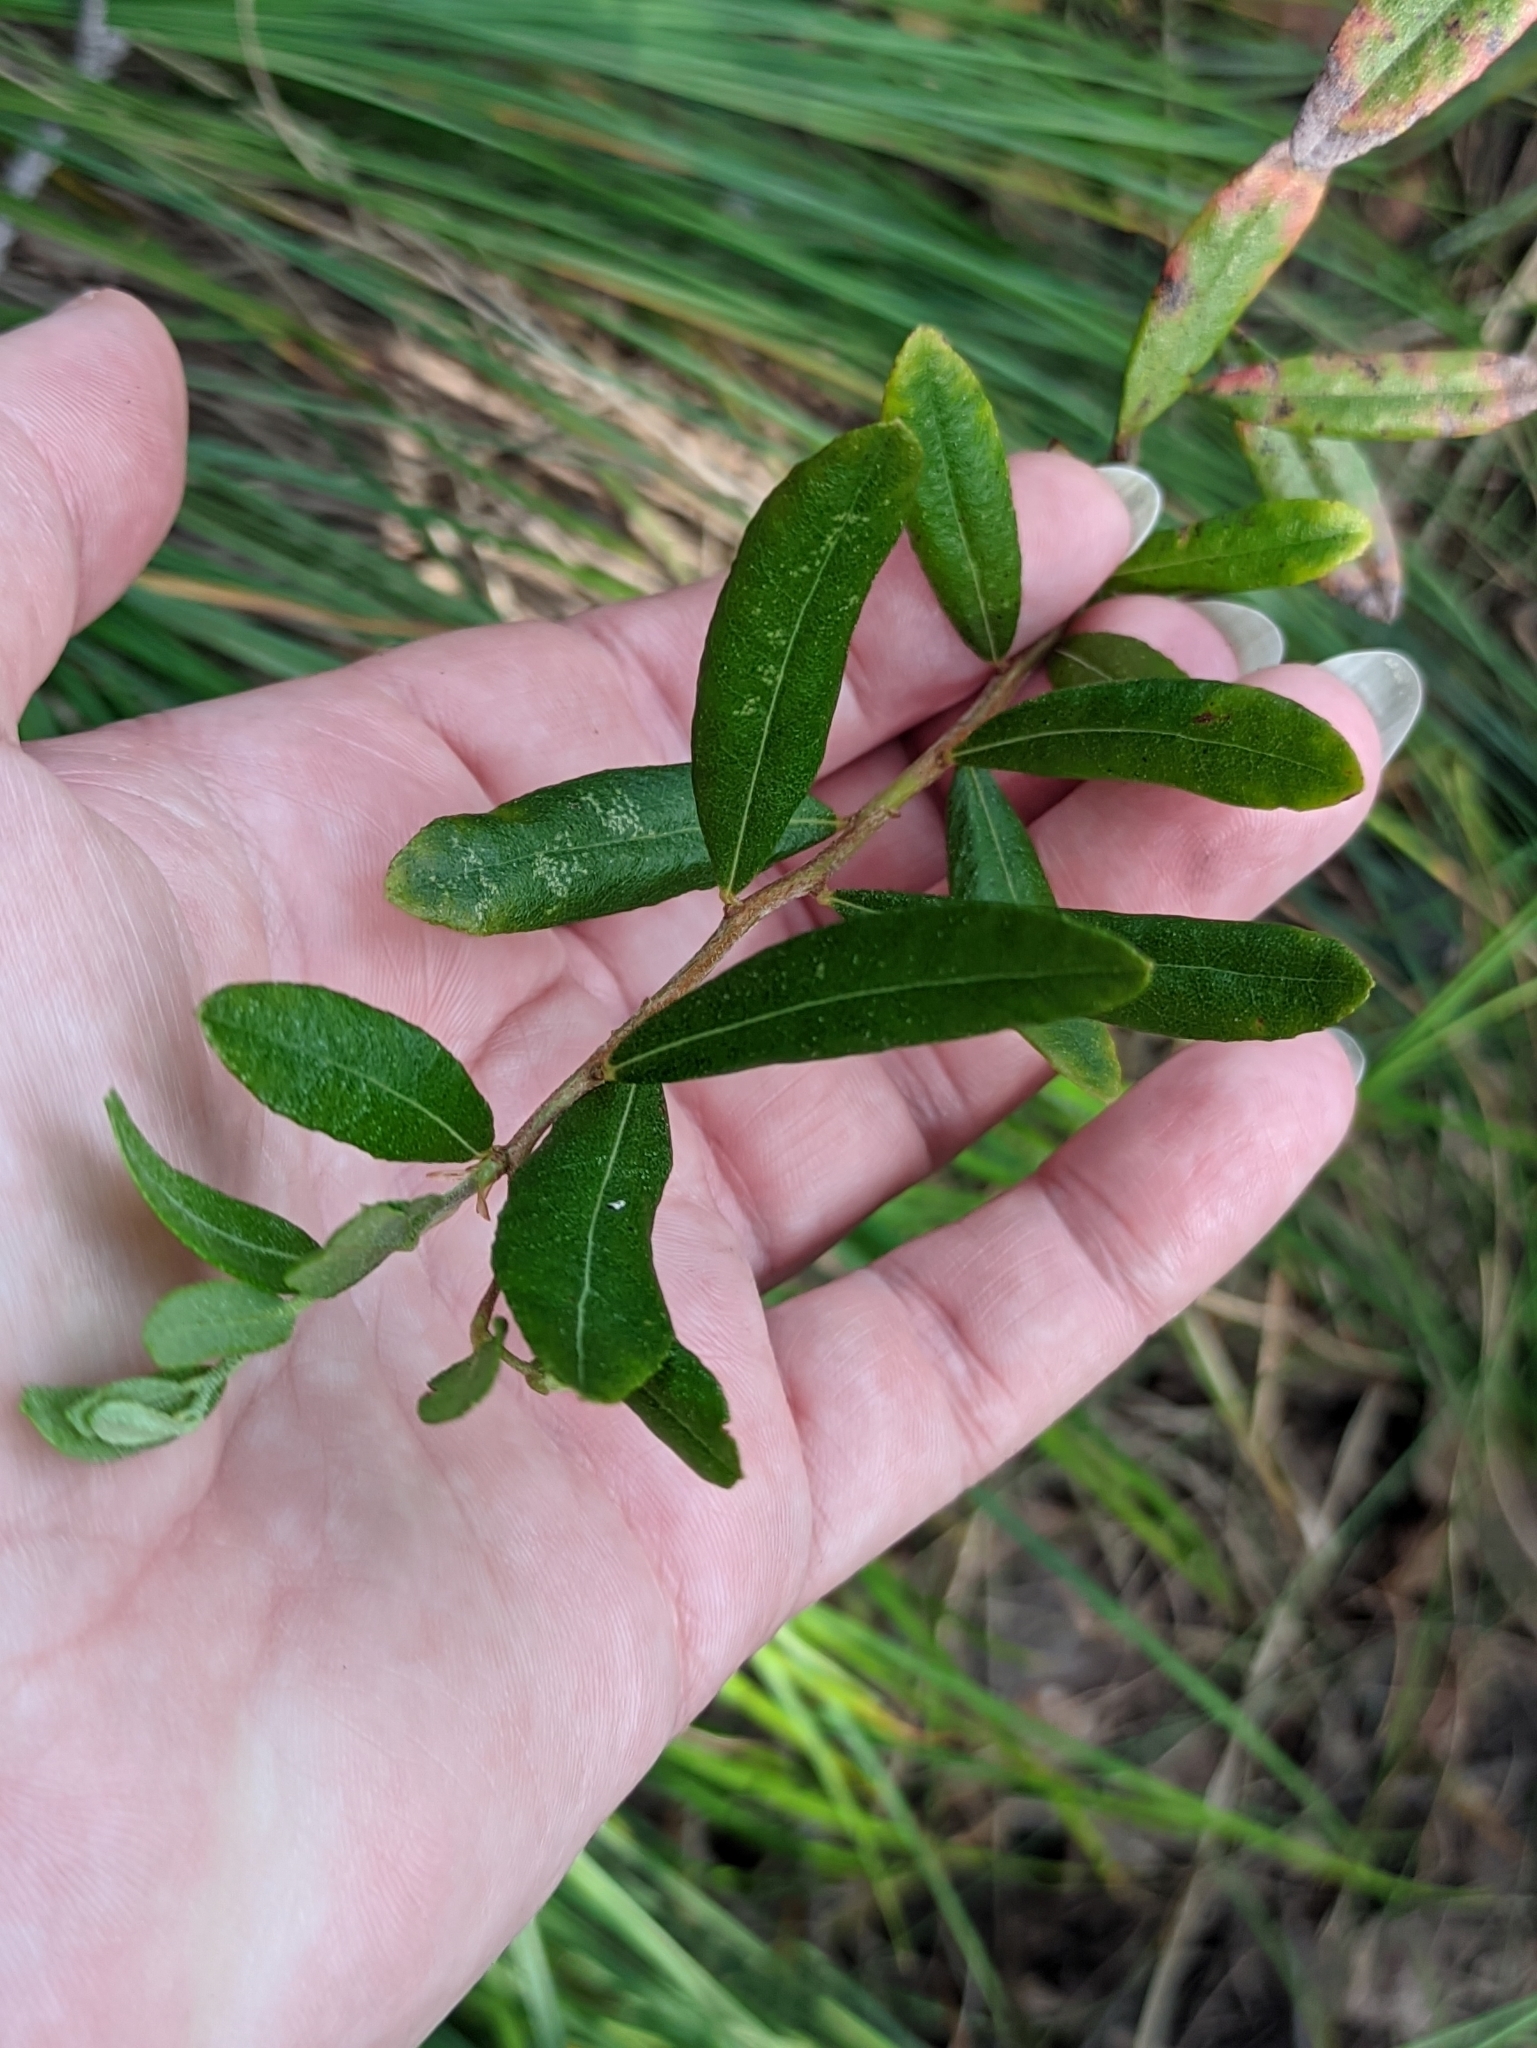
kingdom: Plantae
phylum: Tracheophyta
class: Magnoliopsida
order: Ericales
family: Ericaceae
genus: Chamaedaphne
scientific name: Chamaedaphne calyculata
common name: Leatherleaf
